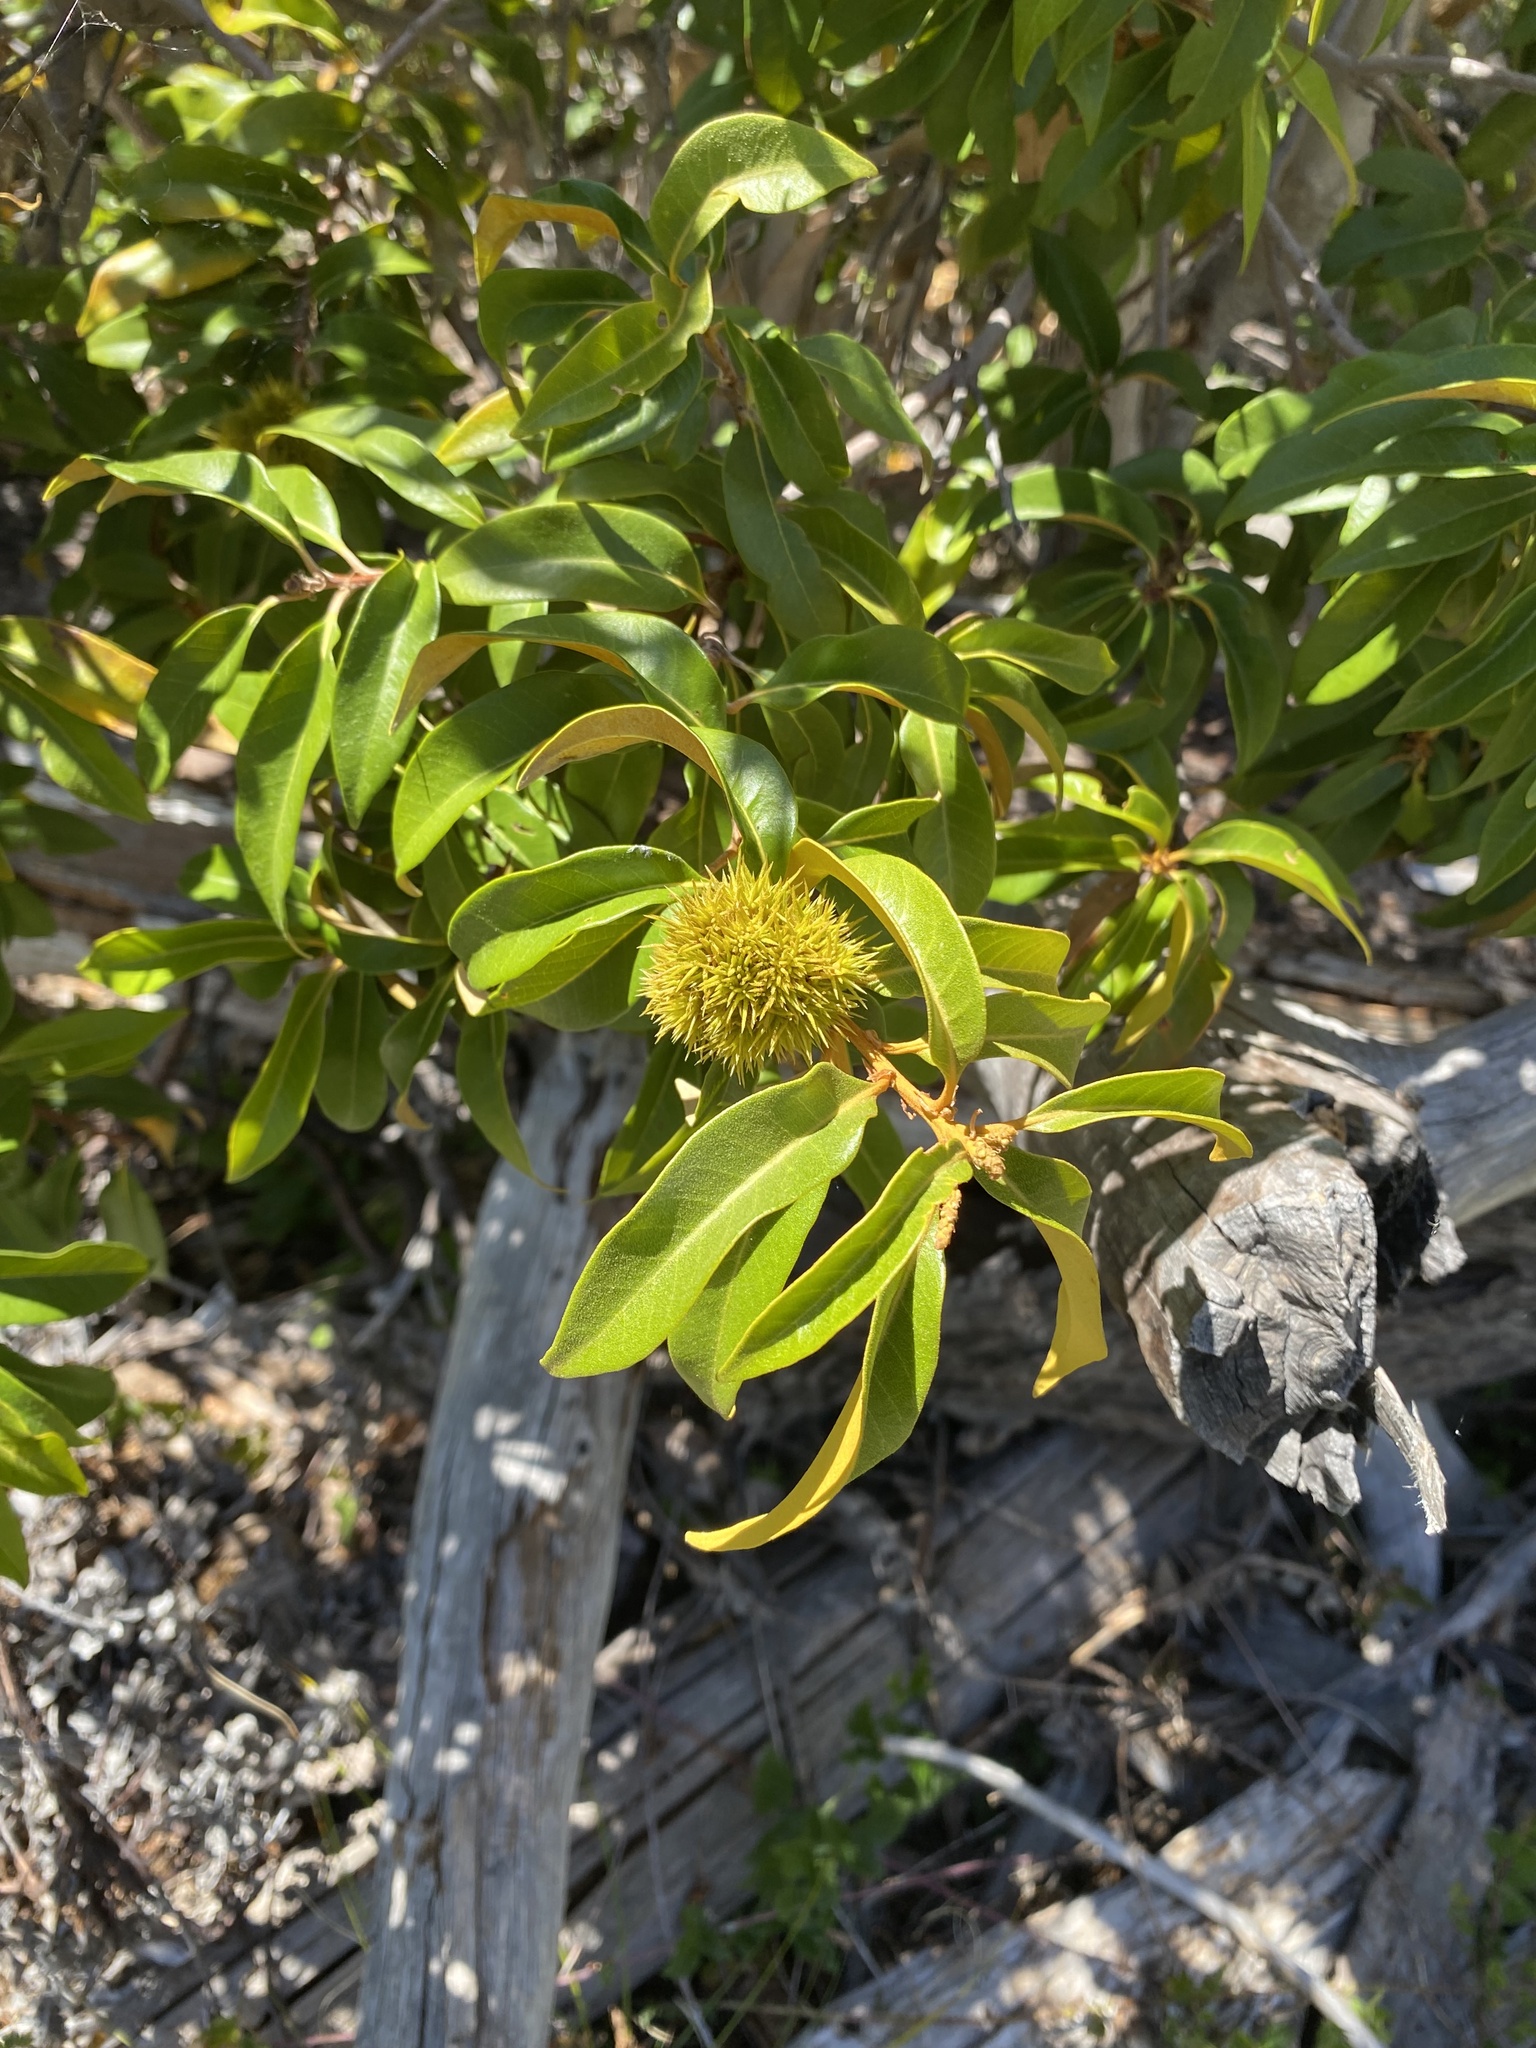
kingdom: Plantae
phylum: Tracheophyta
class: Magnoliopsida
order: Fagales
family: Fagaceae
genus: Chrysolepis
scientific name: Chrysolepis chrysophylla
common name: Giant chinquapin
